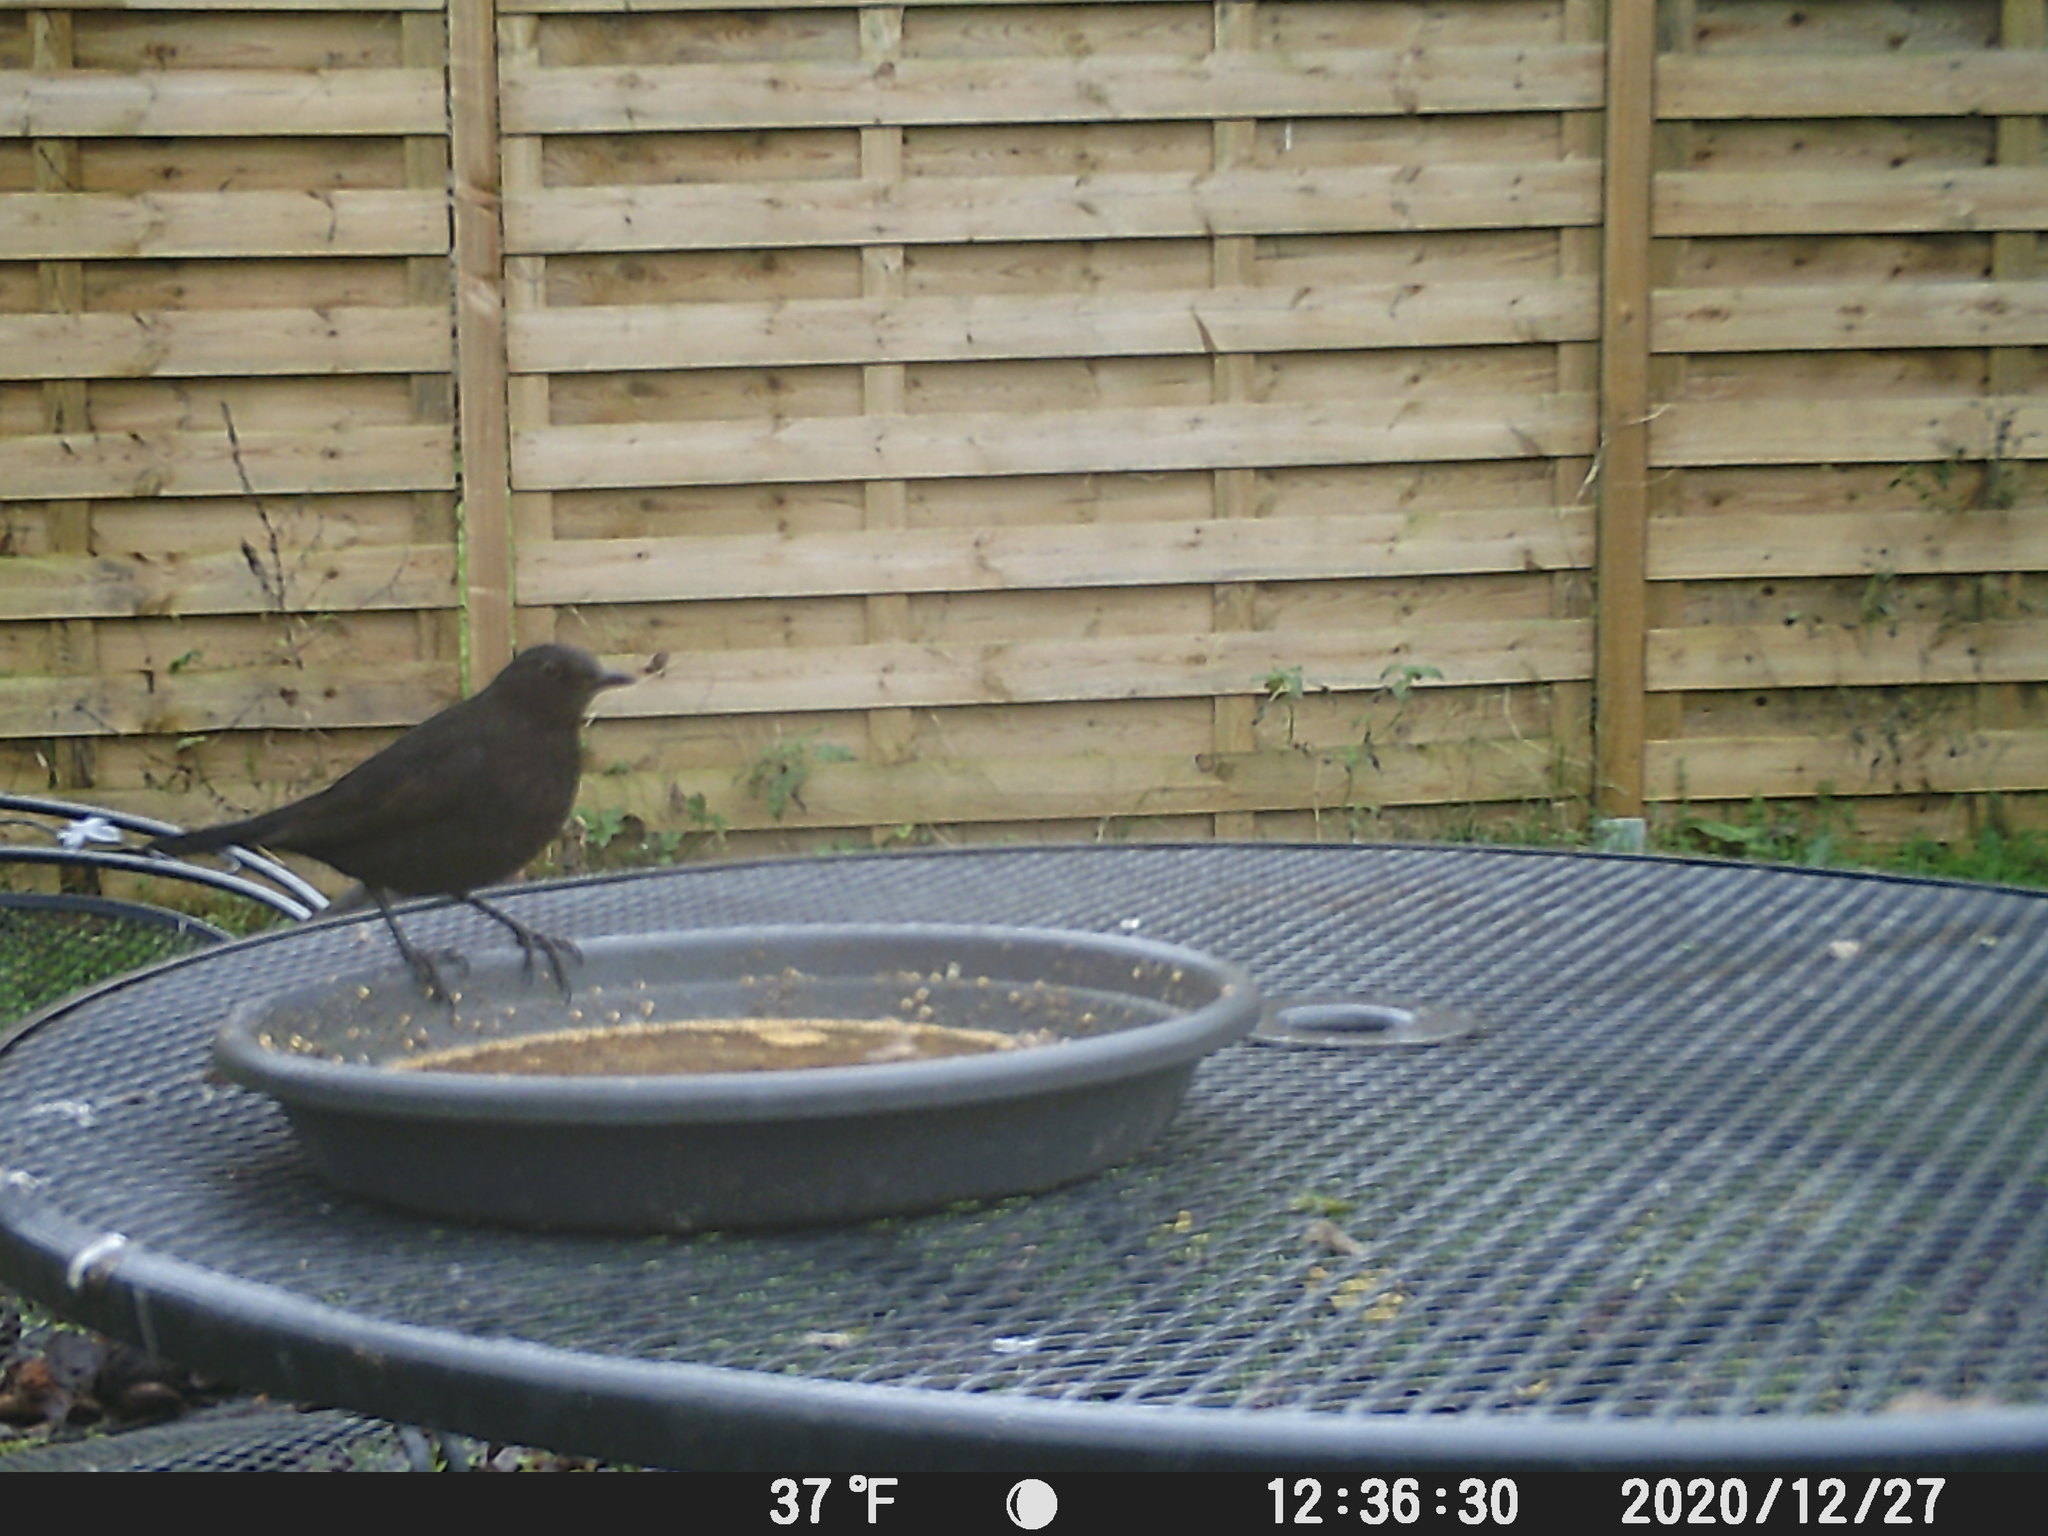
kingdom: Animalia
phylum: Chordata
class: Aves
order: Passeriformes
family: Turdidae
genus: Turdus
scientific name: Turdus merula
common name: Common blackbird
